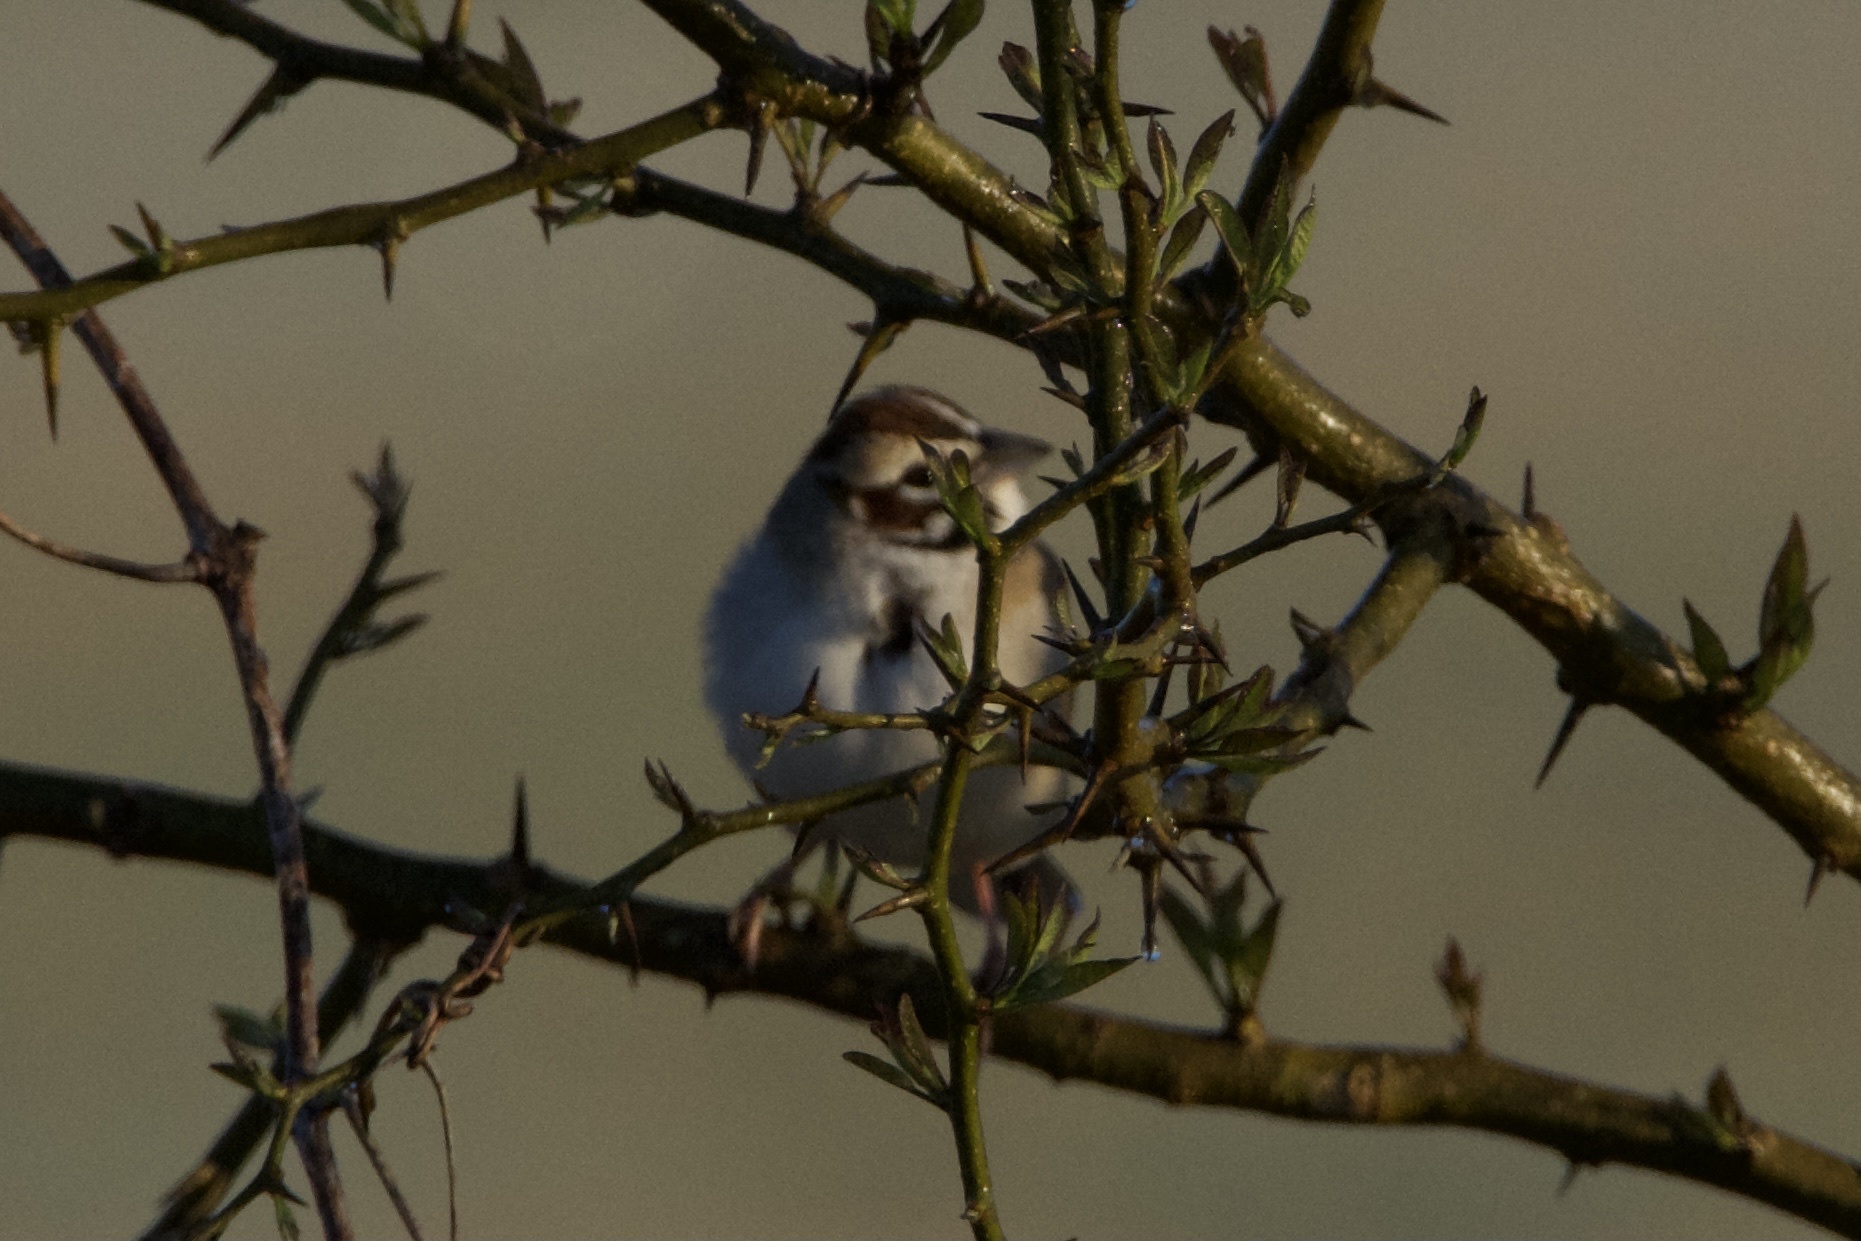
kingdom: Animalia
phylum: Chordata
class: Aves
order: Passeriformes
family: Passerellidae
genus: Chondestes
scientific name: Chondestes grammacus
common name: Lark sparrow
